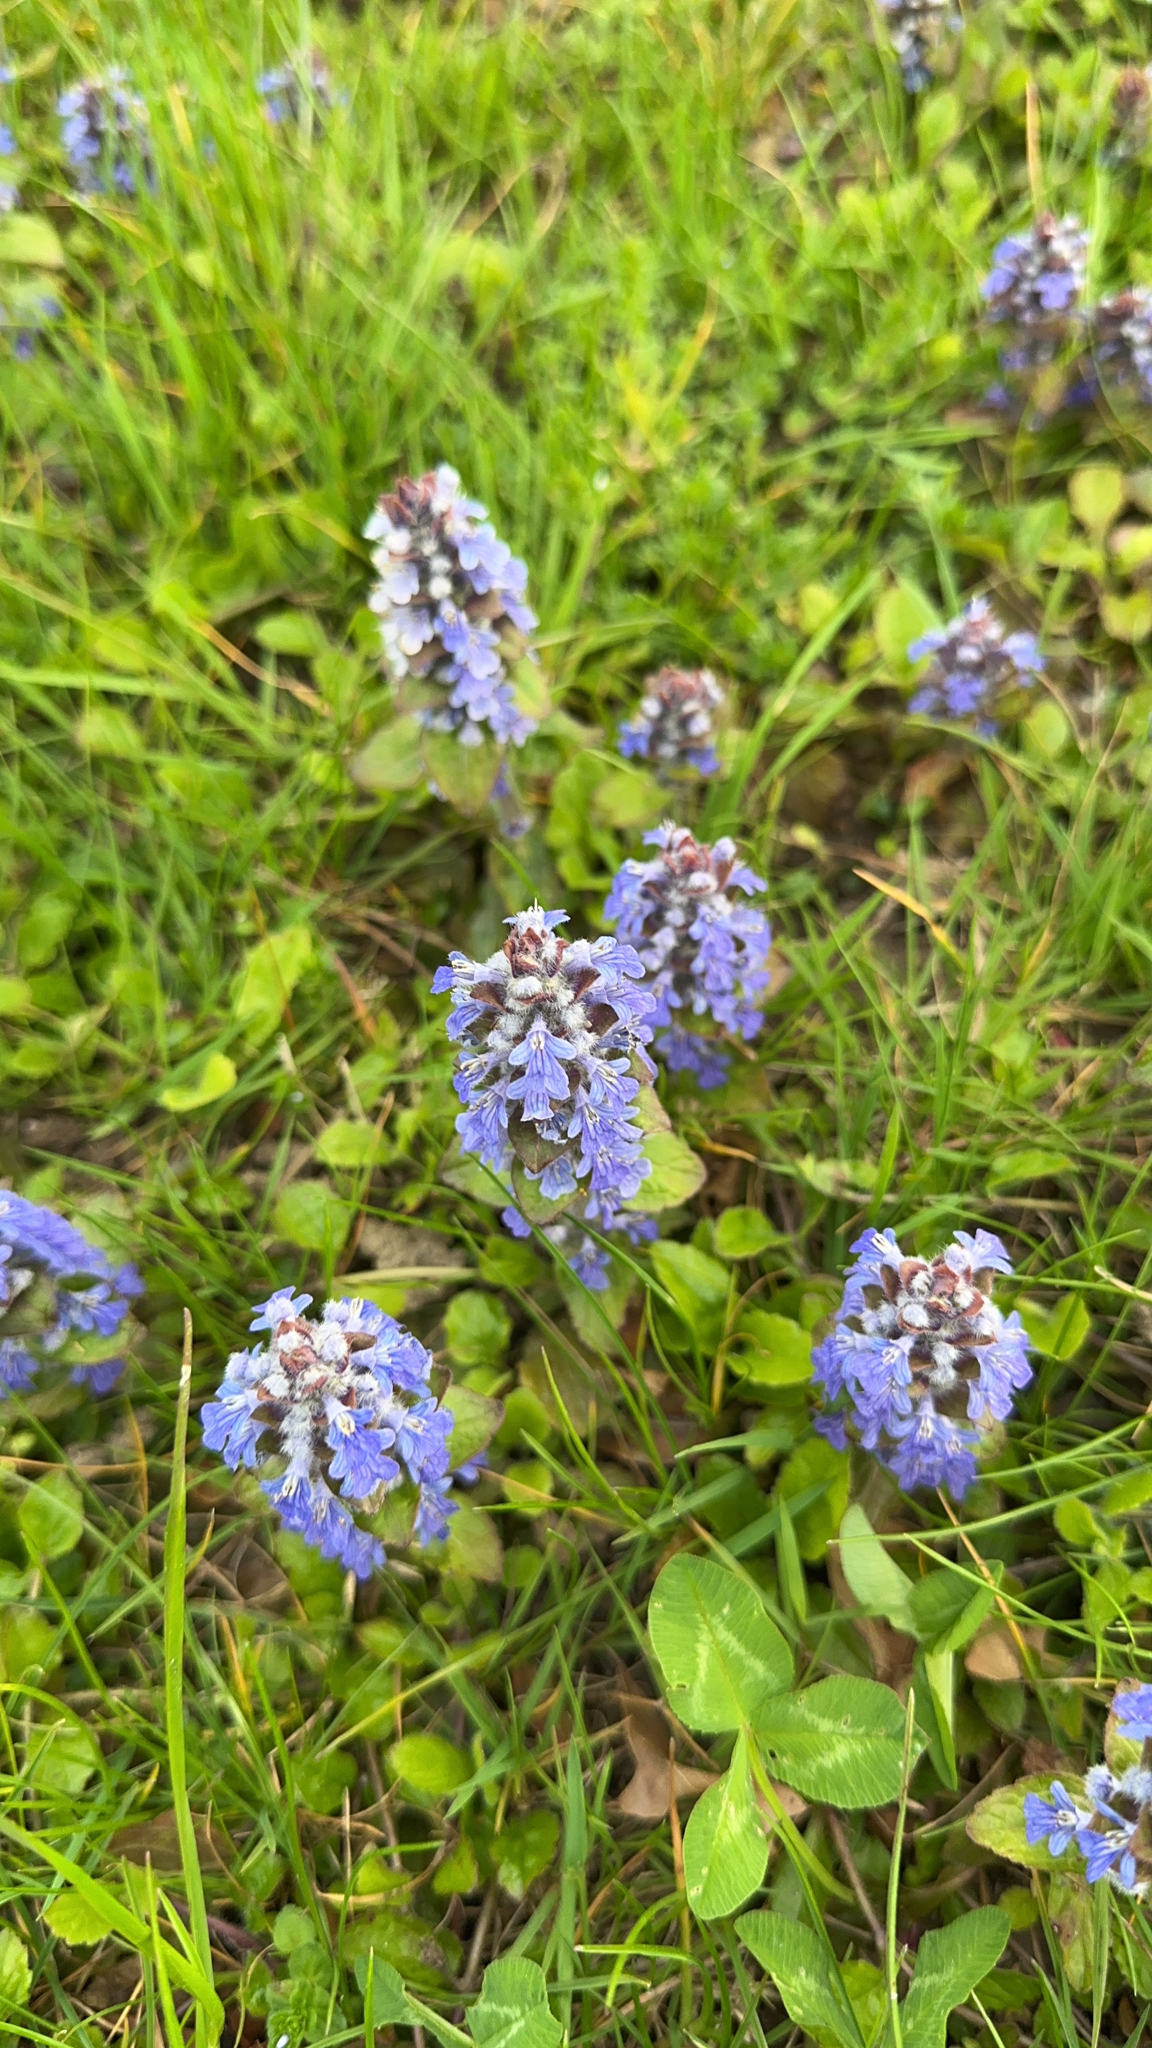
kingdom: Plantae
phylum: Tracheophyta
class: Magnoliopsida
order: Lamiales
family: Lamiaceae
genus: Ajuga
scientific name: Ajuga reptans
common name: Bugle
